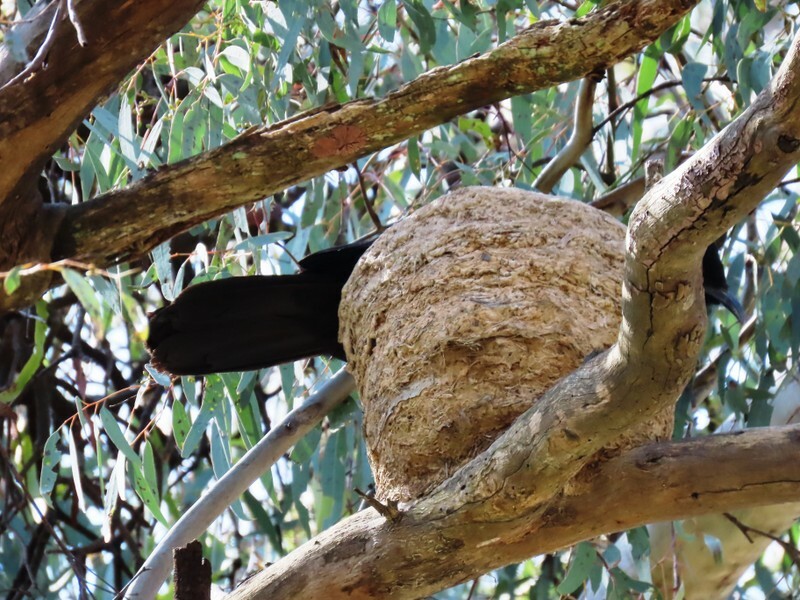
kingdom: Animalia
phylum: Chordata
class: Aves
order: Passeriformes
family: Corcoracidae
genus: Corcorax
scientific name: Corcorax melanoramphos
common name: White-winged chough
